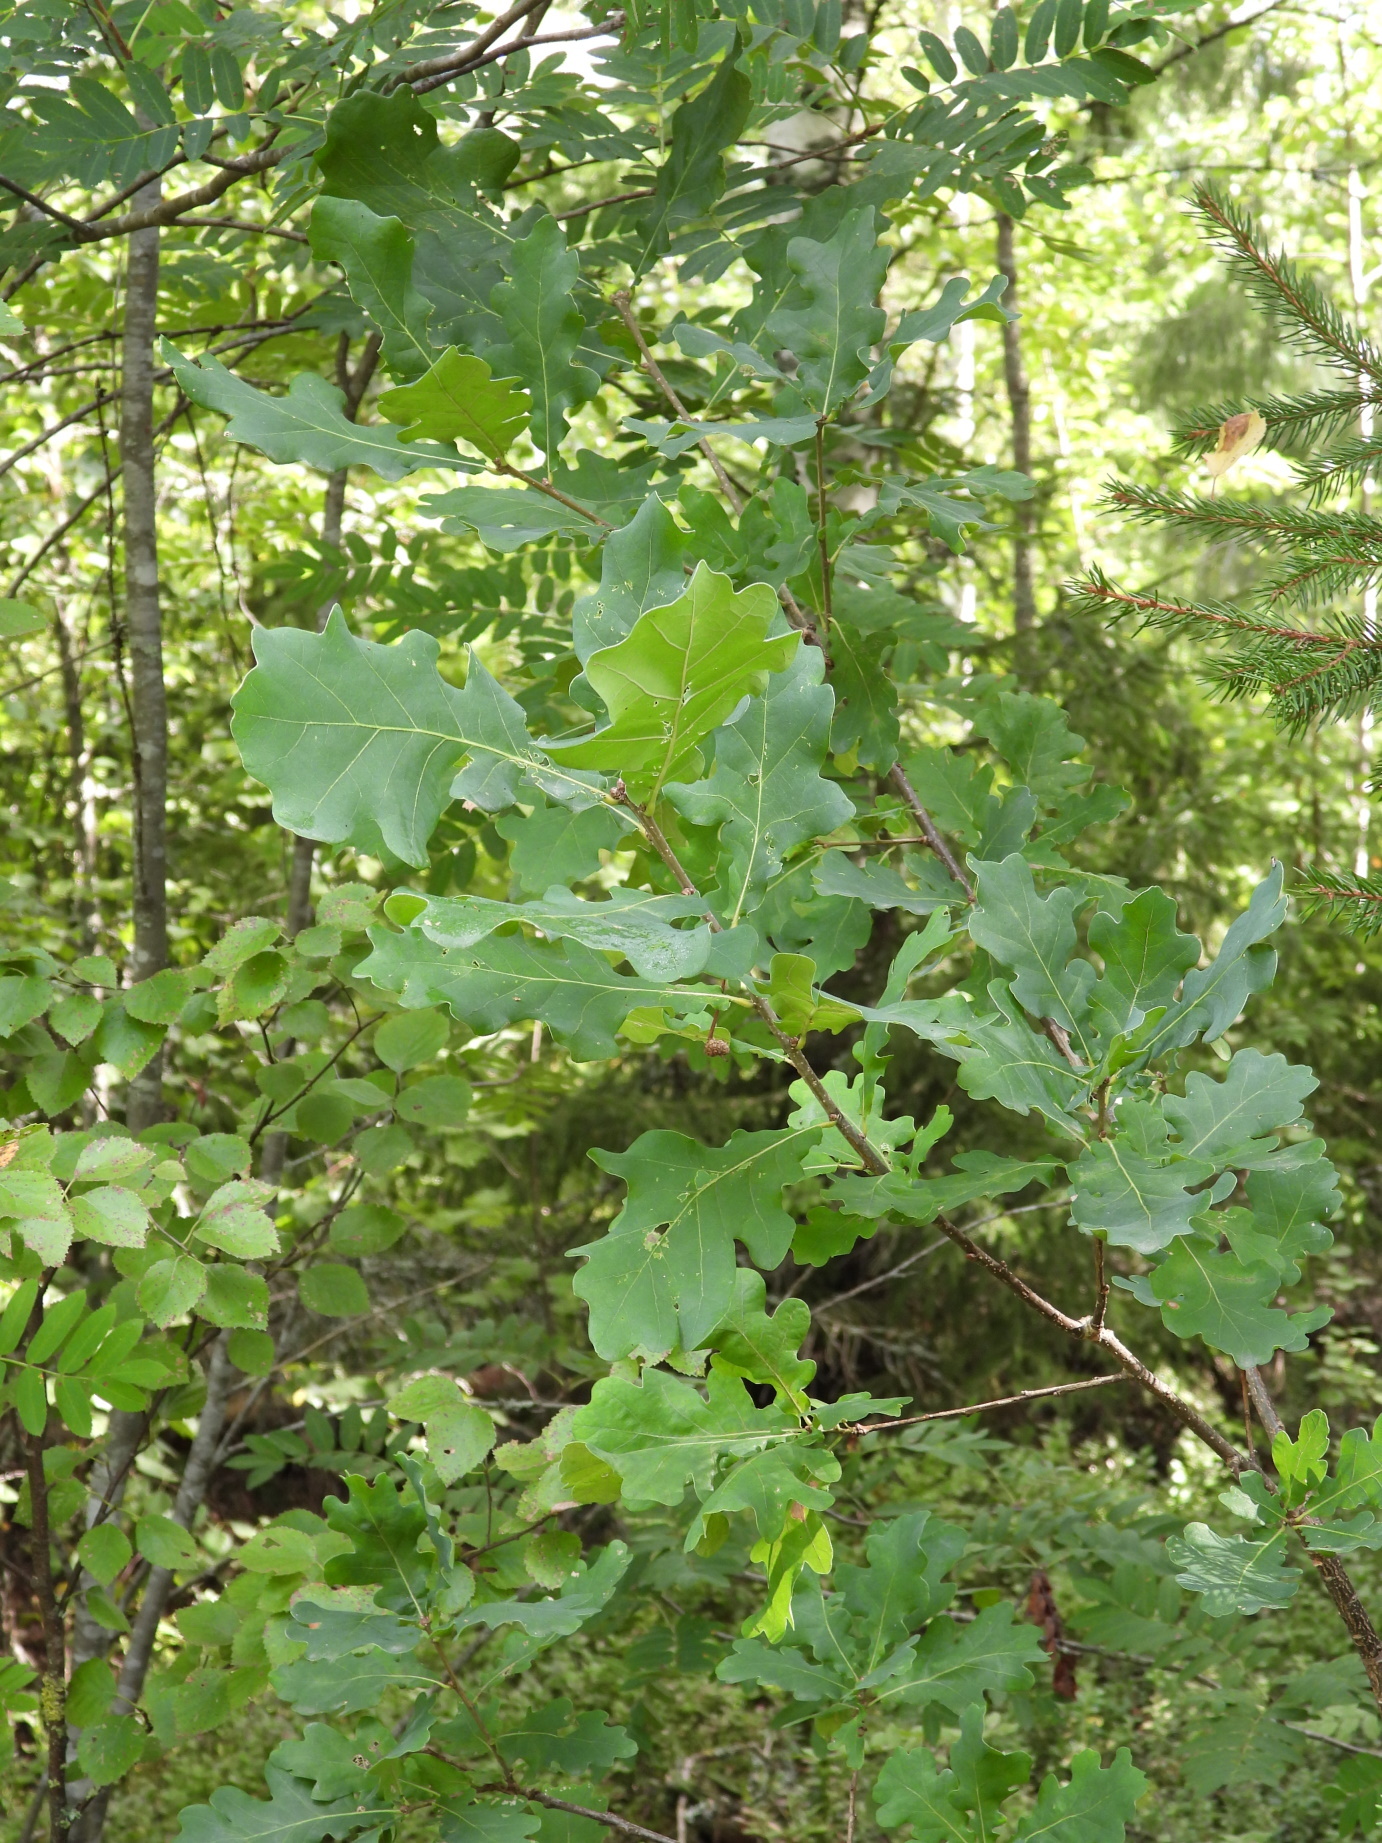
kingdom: Plantae
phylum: Tracheophyta
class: Magnoliopsida
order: Fagales
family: Fagaceae
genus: Quercus
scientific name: Quercus robur
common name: Pedunculate oak
